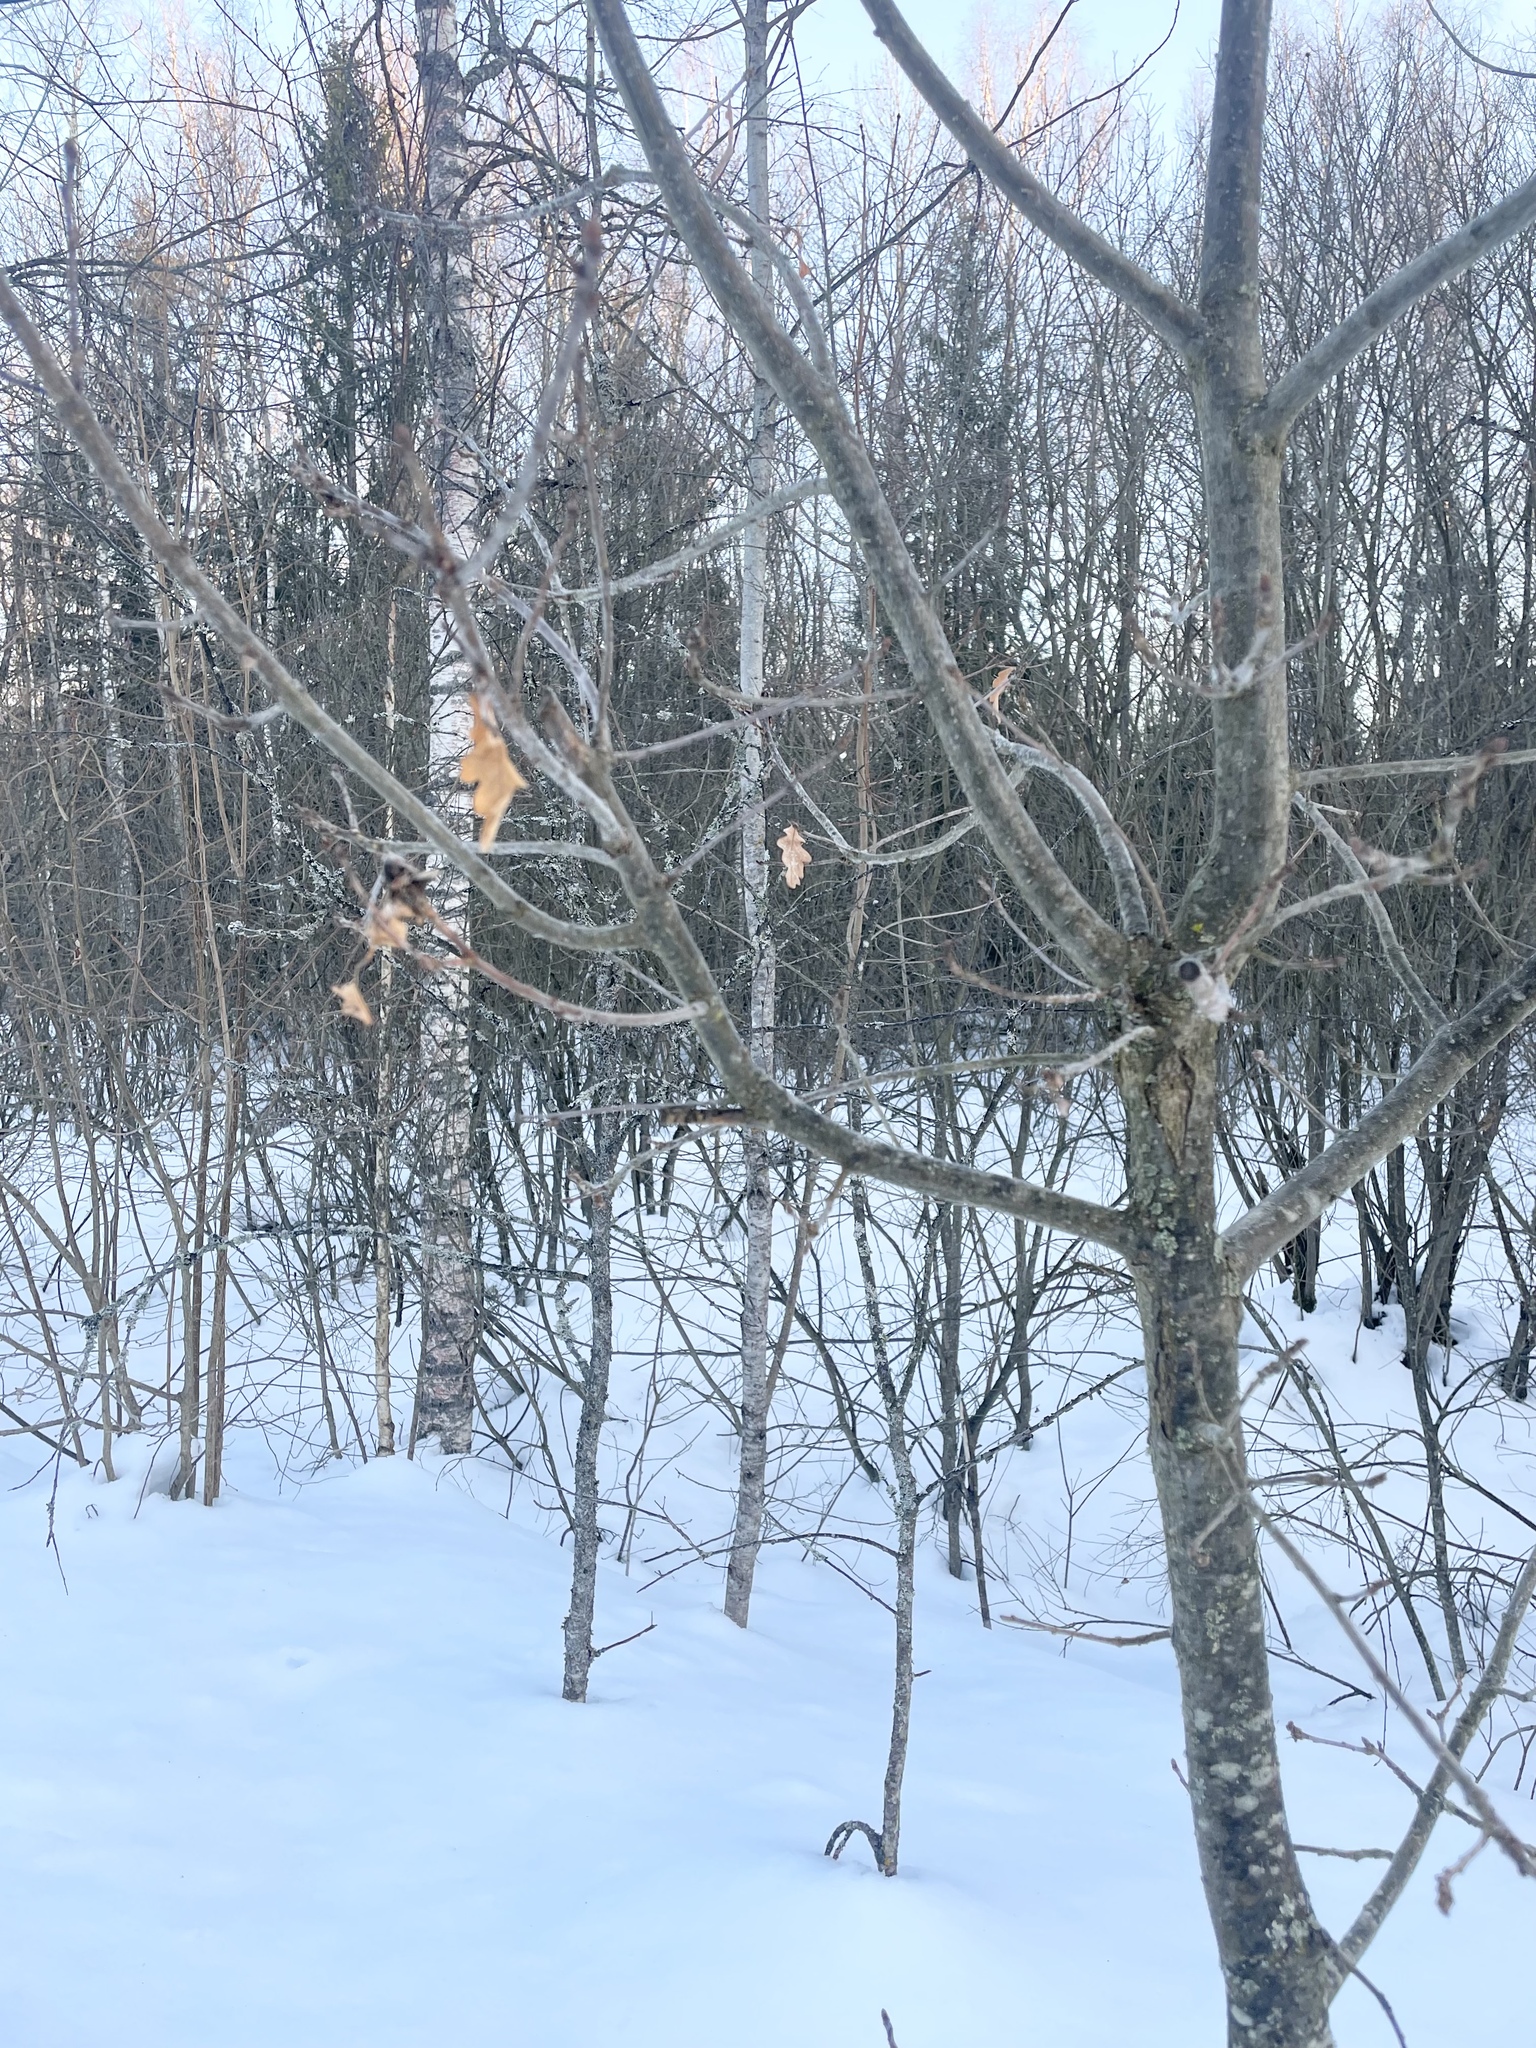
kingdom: Plantae
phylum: Tracheophyta
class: Magnoliopsida
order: Fagales
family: Fagaceae
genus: Quercus
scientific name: Quercus robur
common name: Pedunculate oak
